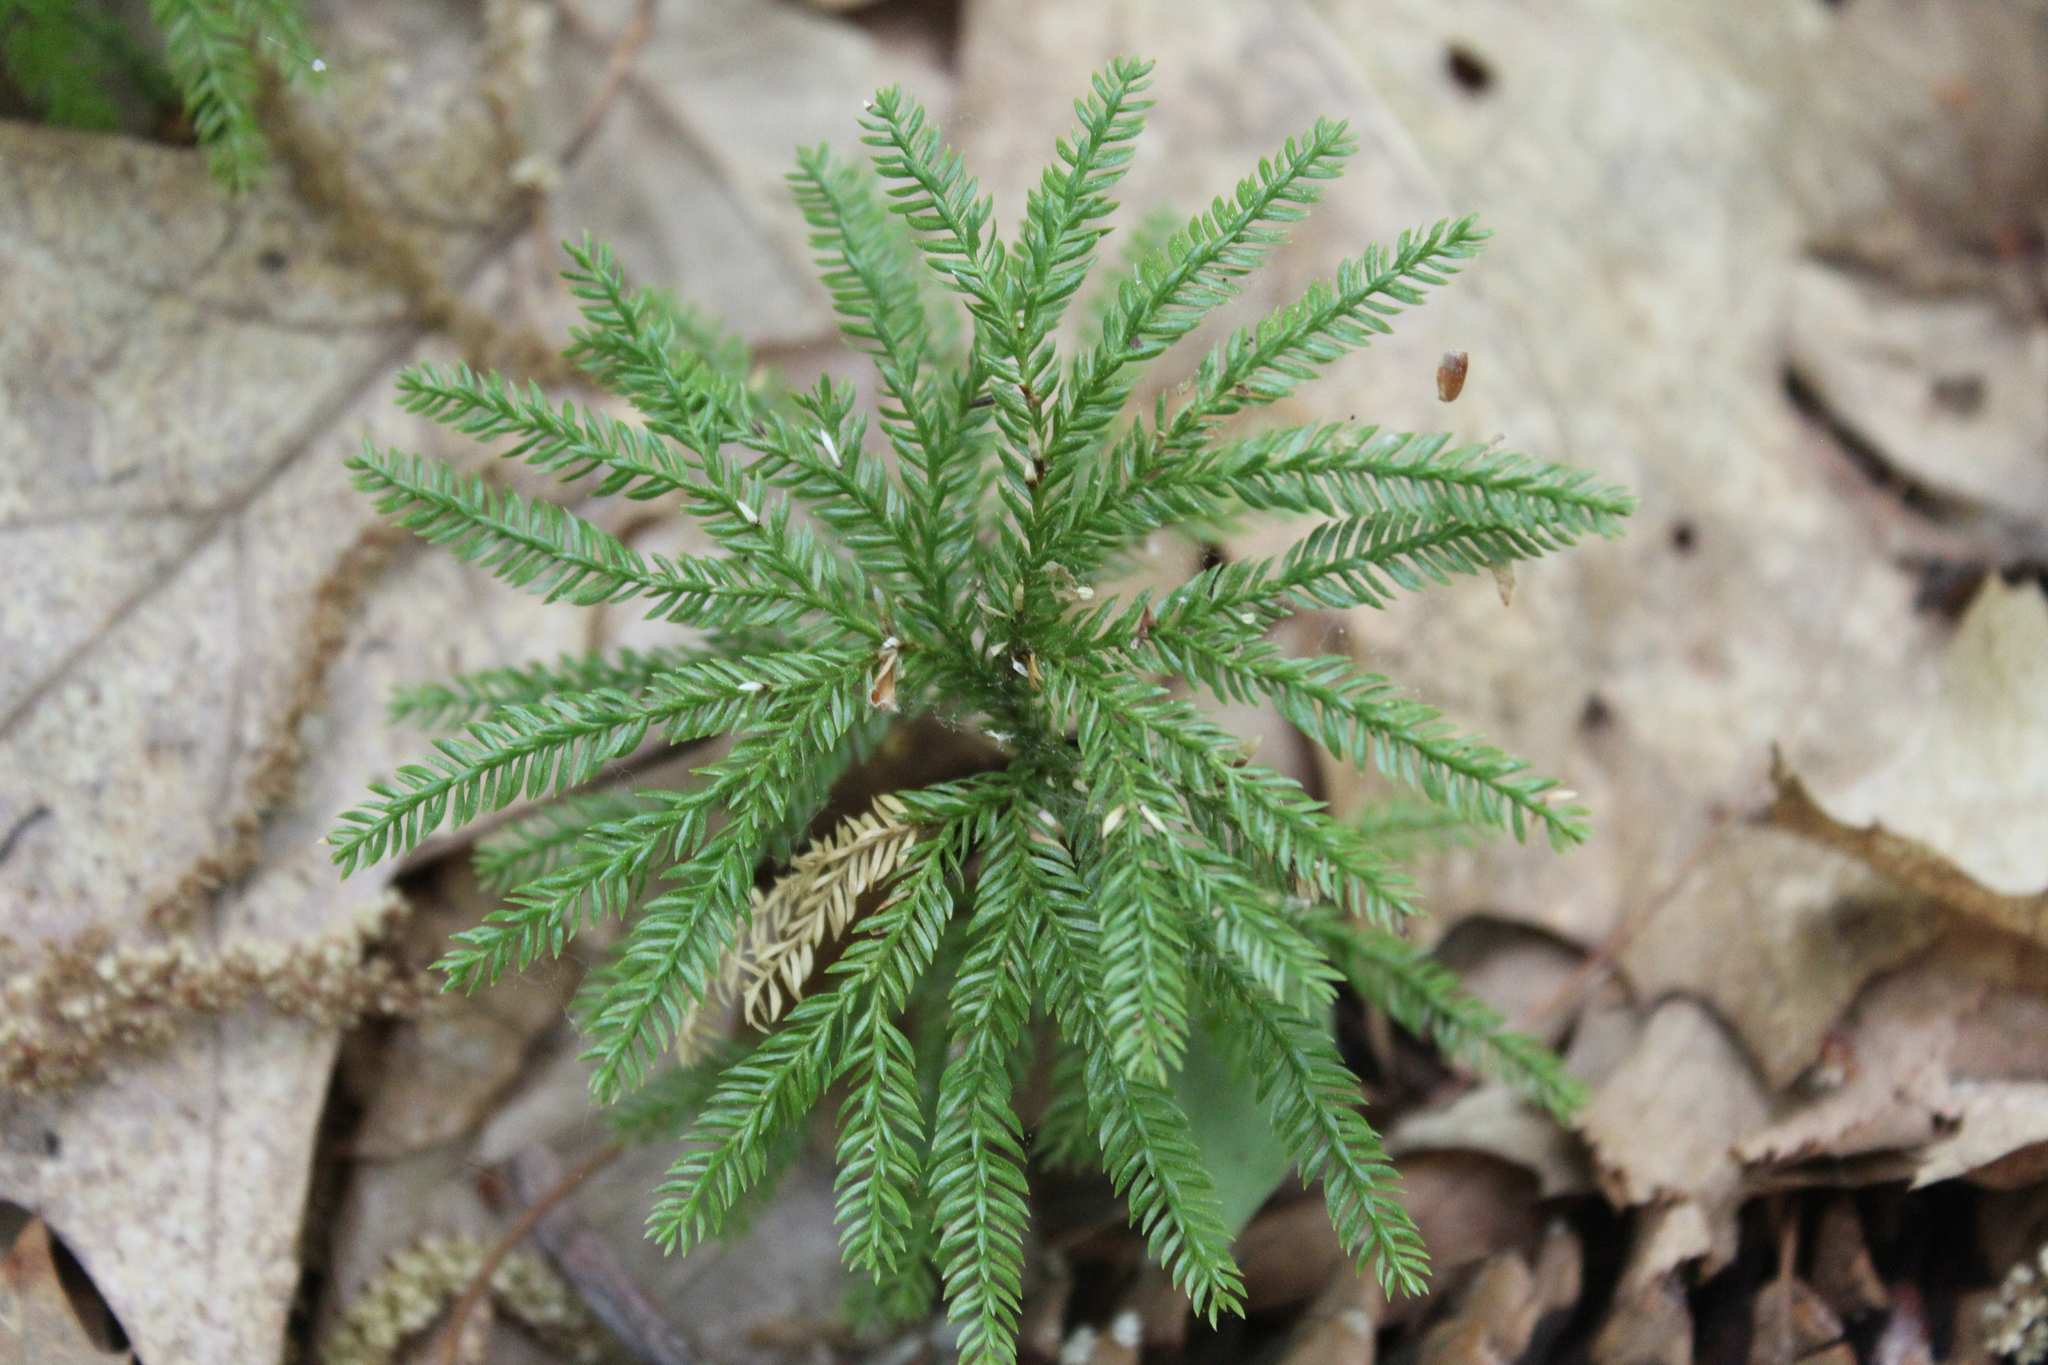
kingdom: Plantae
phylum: Tracheophyta
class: Lycopodiopsida
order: Lycopodiales
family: Lycopodiaceae
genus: Dendrolycopodium
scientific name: Dendrolycopodium obscurum
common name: Common ground-pine
